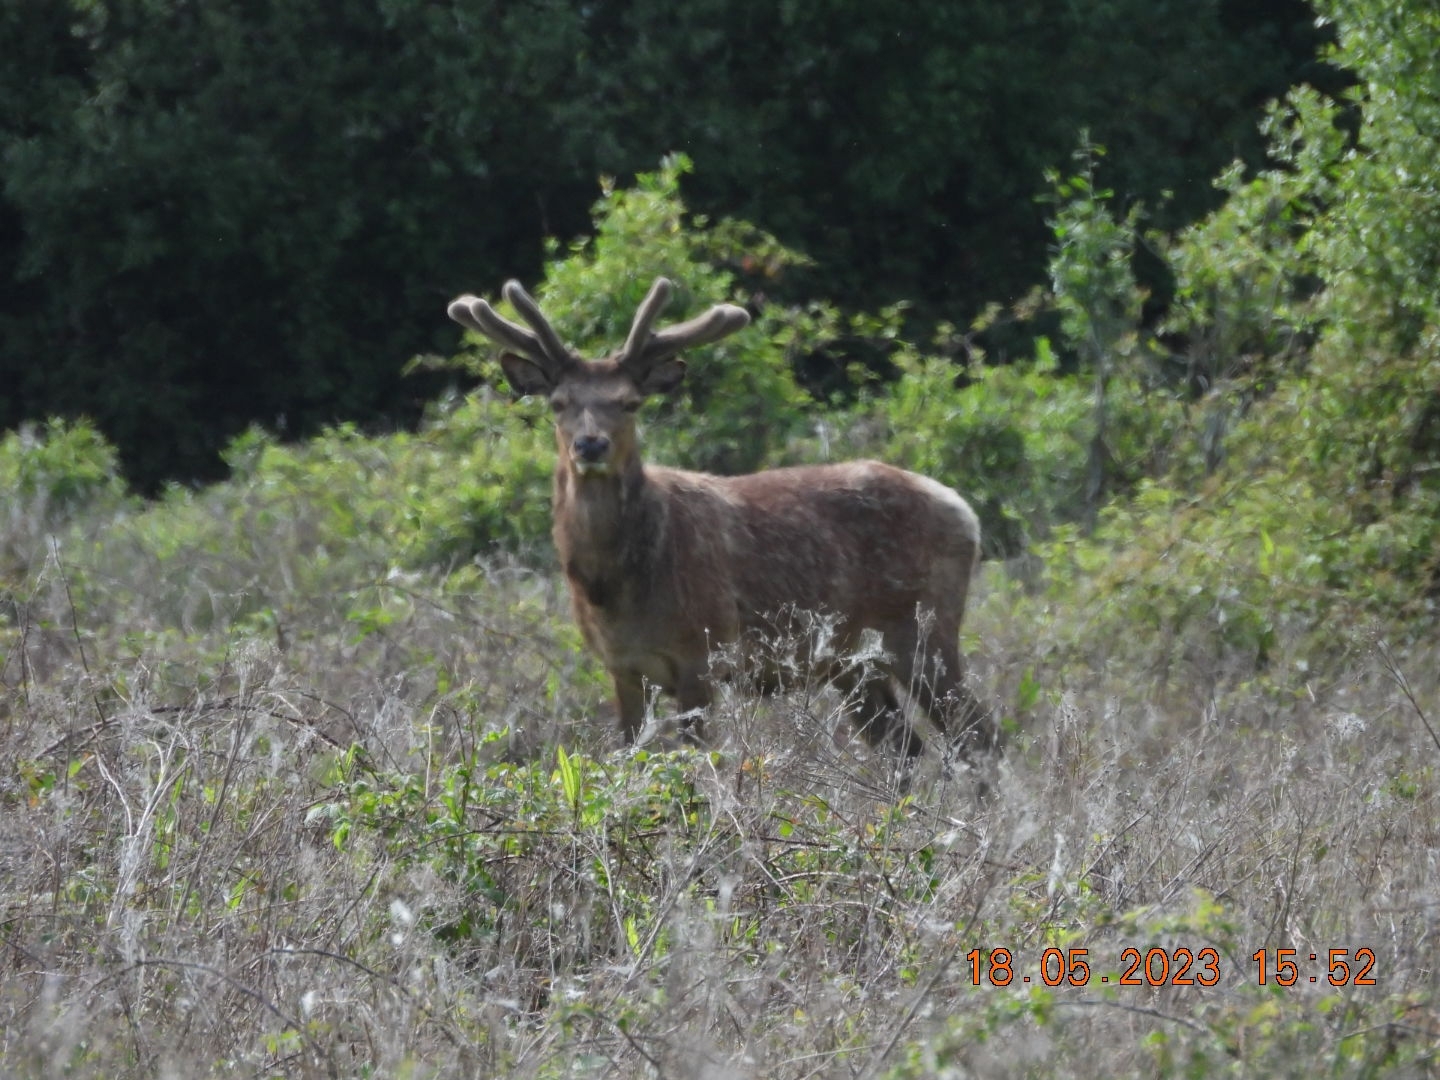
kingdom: Animalia
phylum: Chordata
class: Mammalia
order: Artiodactyla
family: Cervidae
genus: Cervus
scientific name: Cervus elaphus
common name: Red deer
